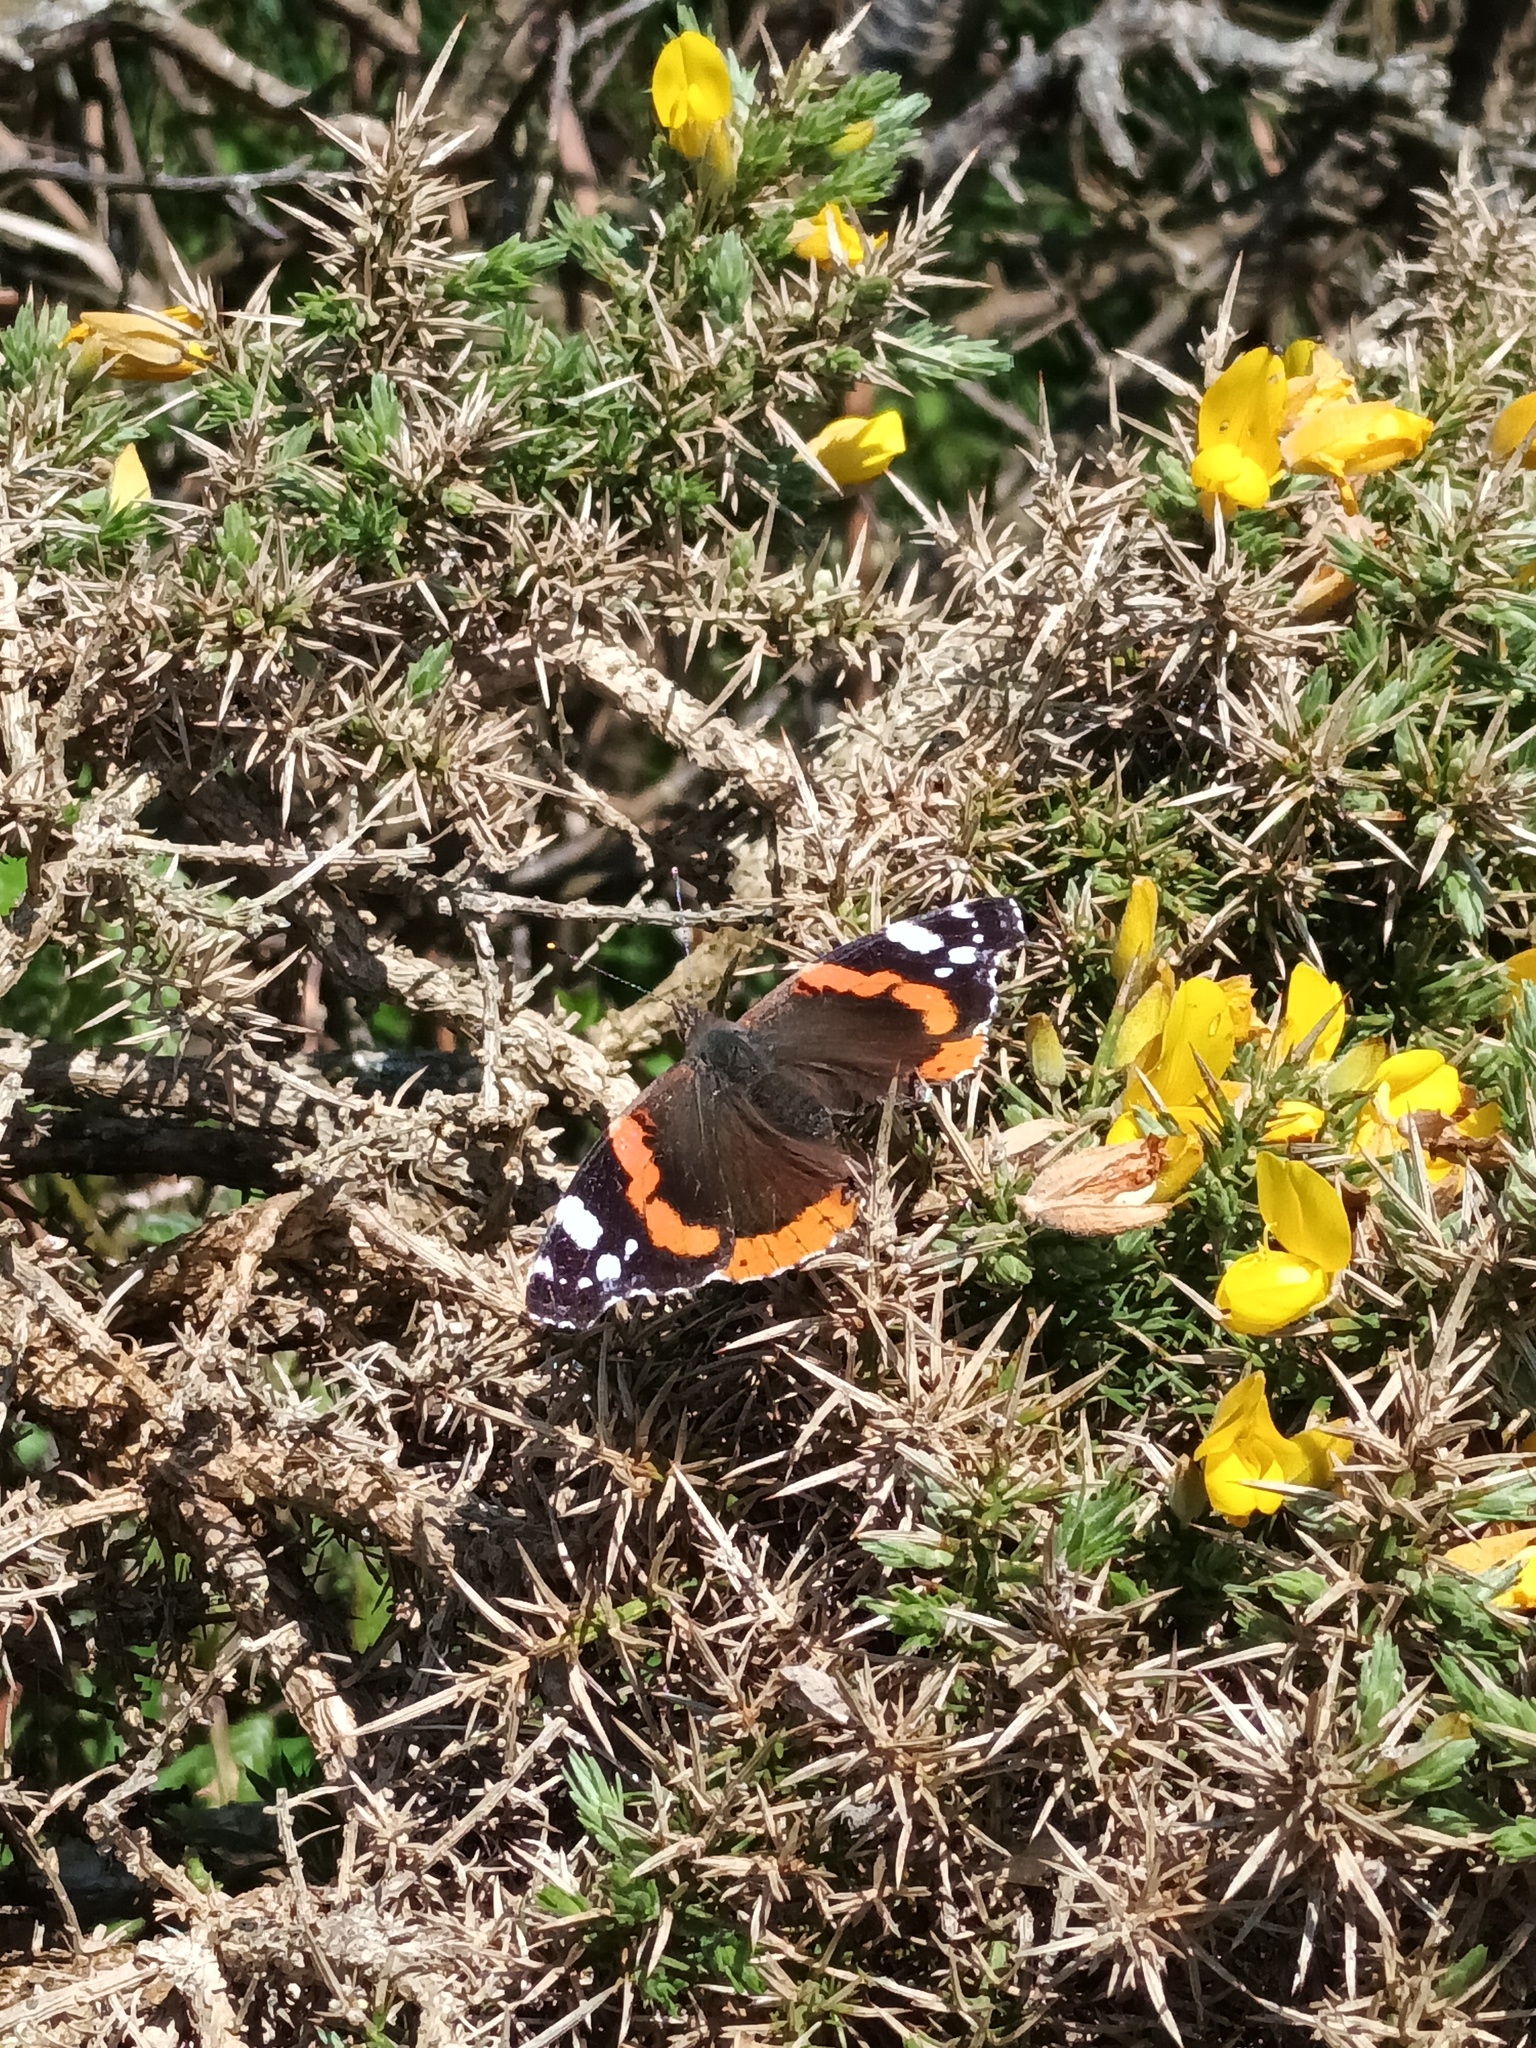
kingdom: Animalia
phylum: Arthropoda
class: Insecta
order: Lepidoptera
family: Nymphalidae
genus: Vanessa
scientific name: Vanessa atalanta
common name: Red admiral
